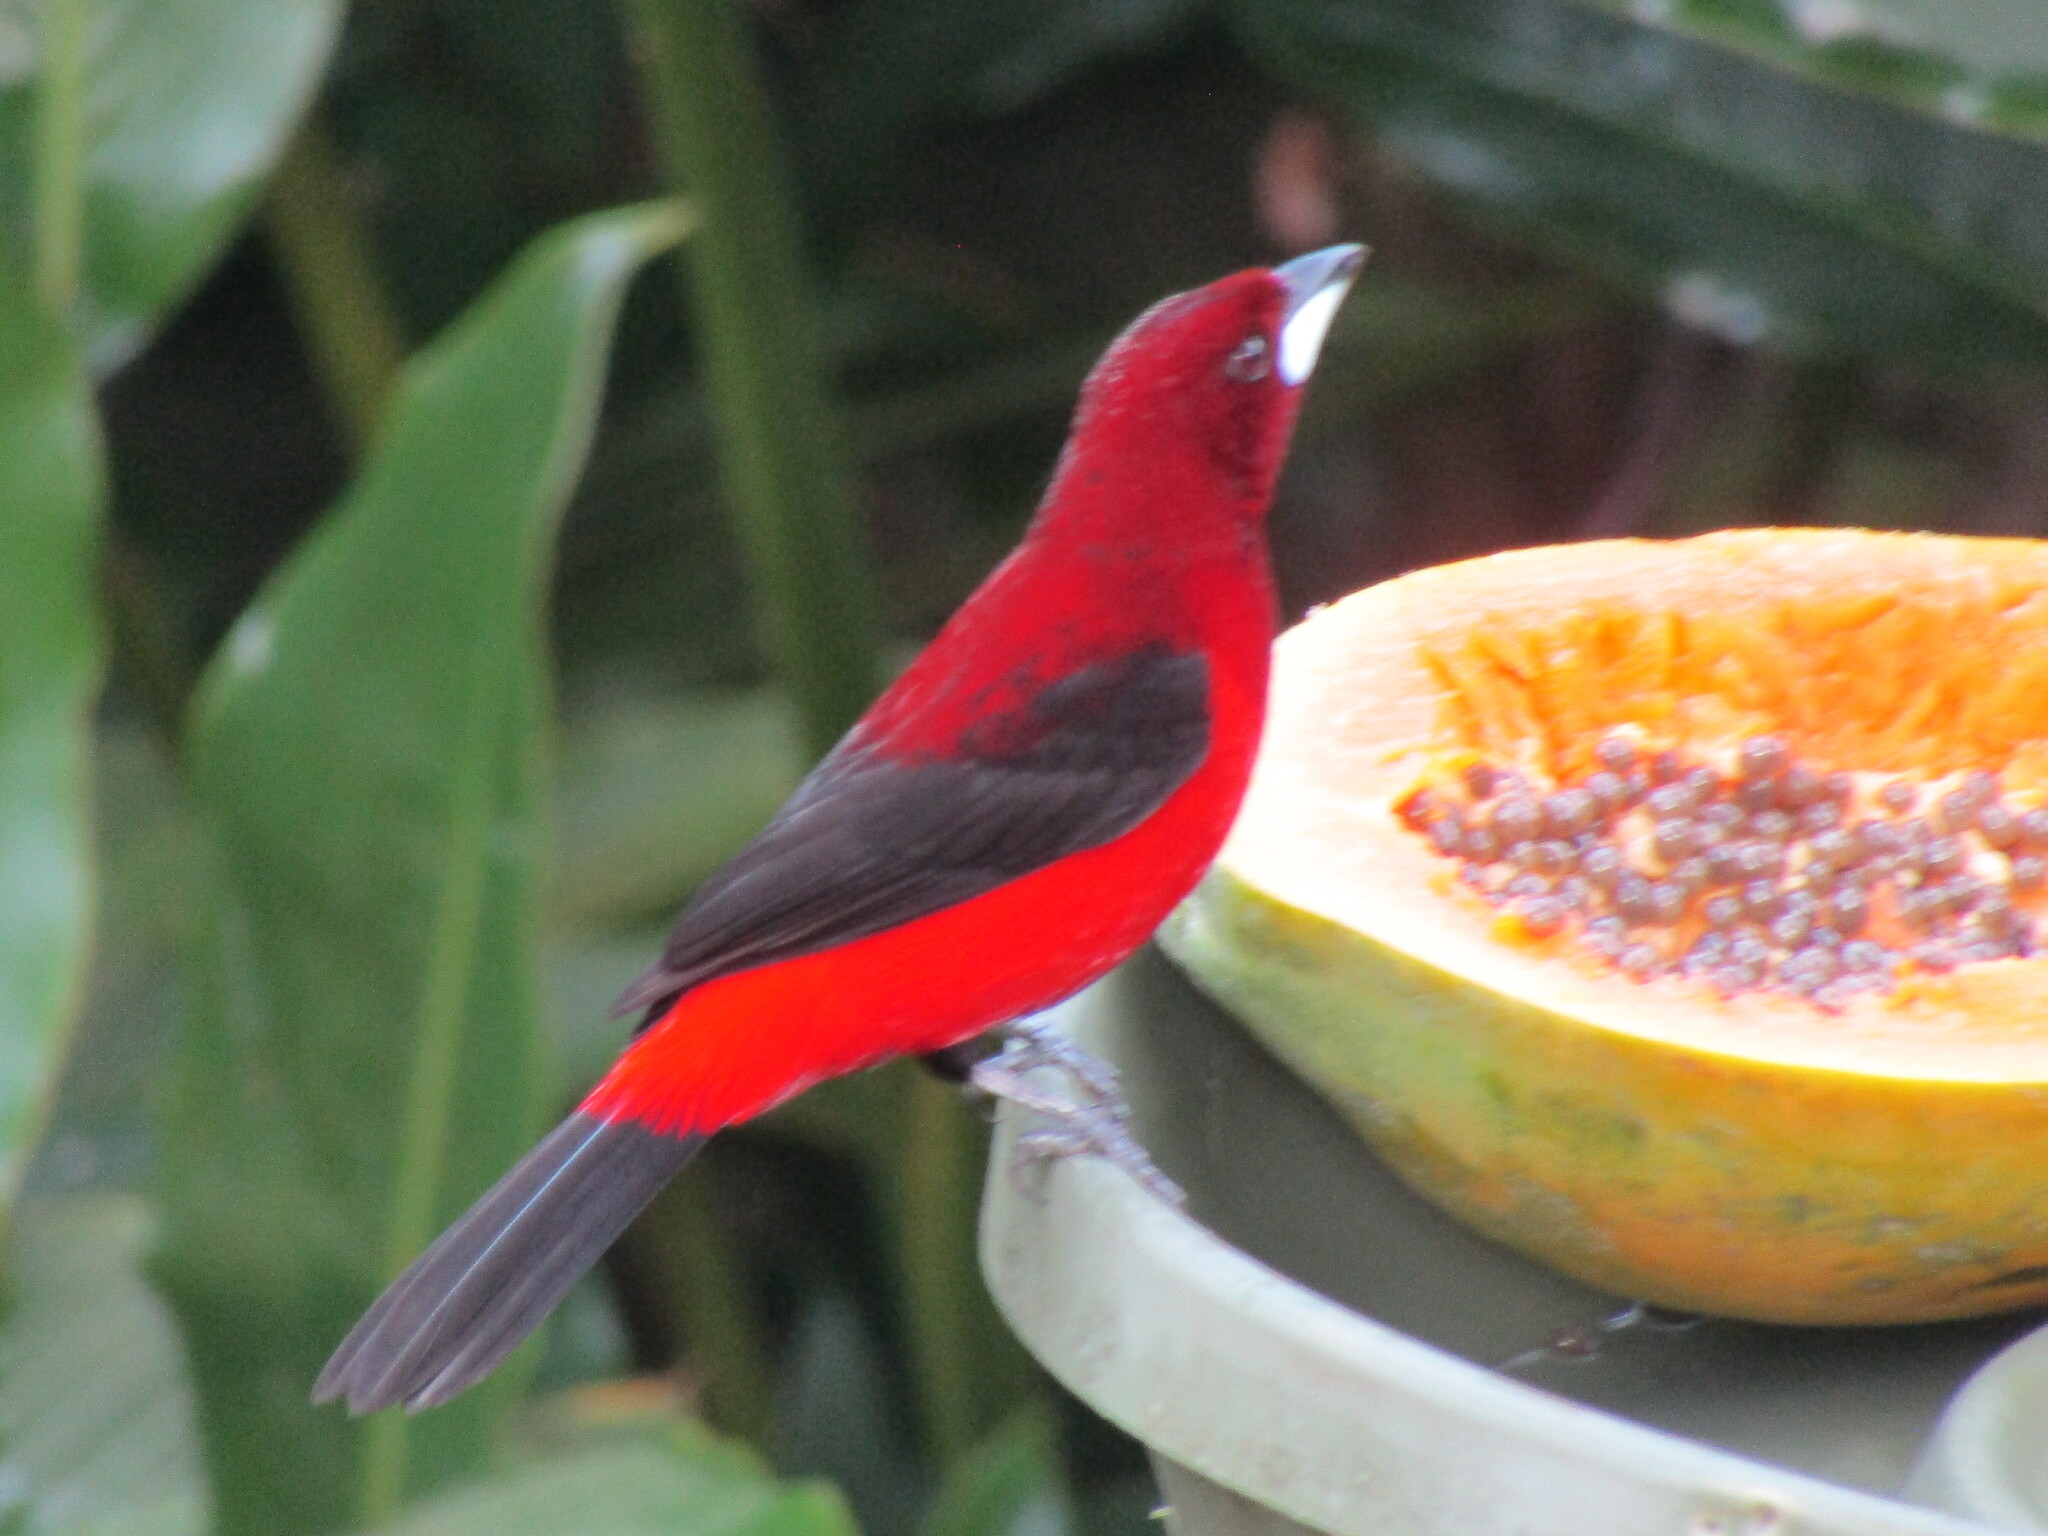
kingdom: Animalia
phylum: Chordata
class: Aves
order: Passeriformes
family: Thraupidae
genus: Ramphocelus
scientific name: Ramphocelus dimidiatus
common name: Crimson-backed tanager
